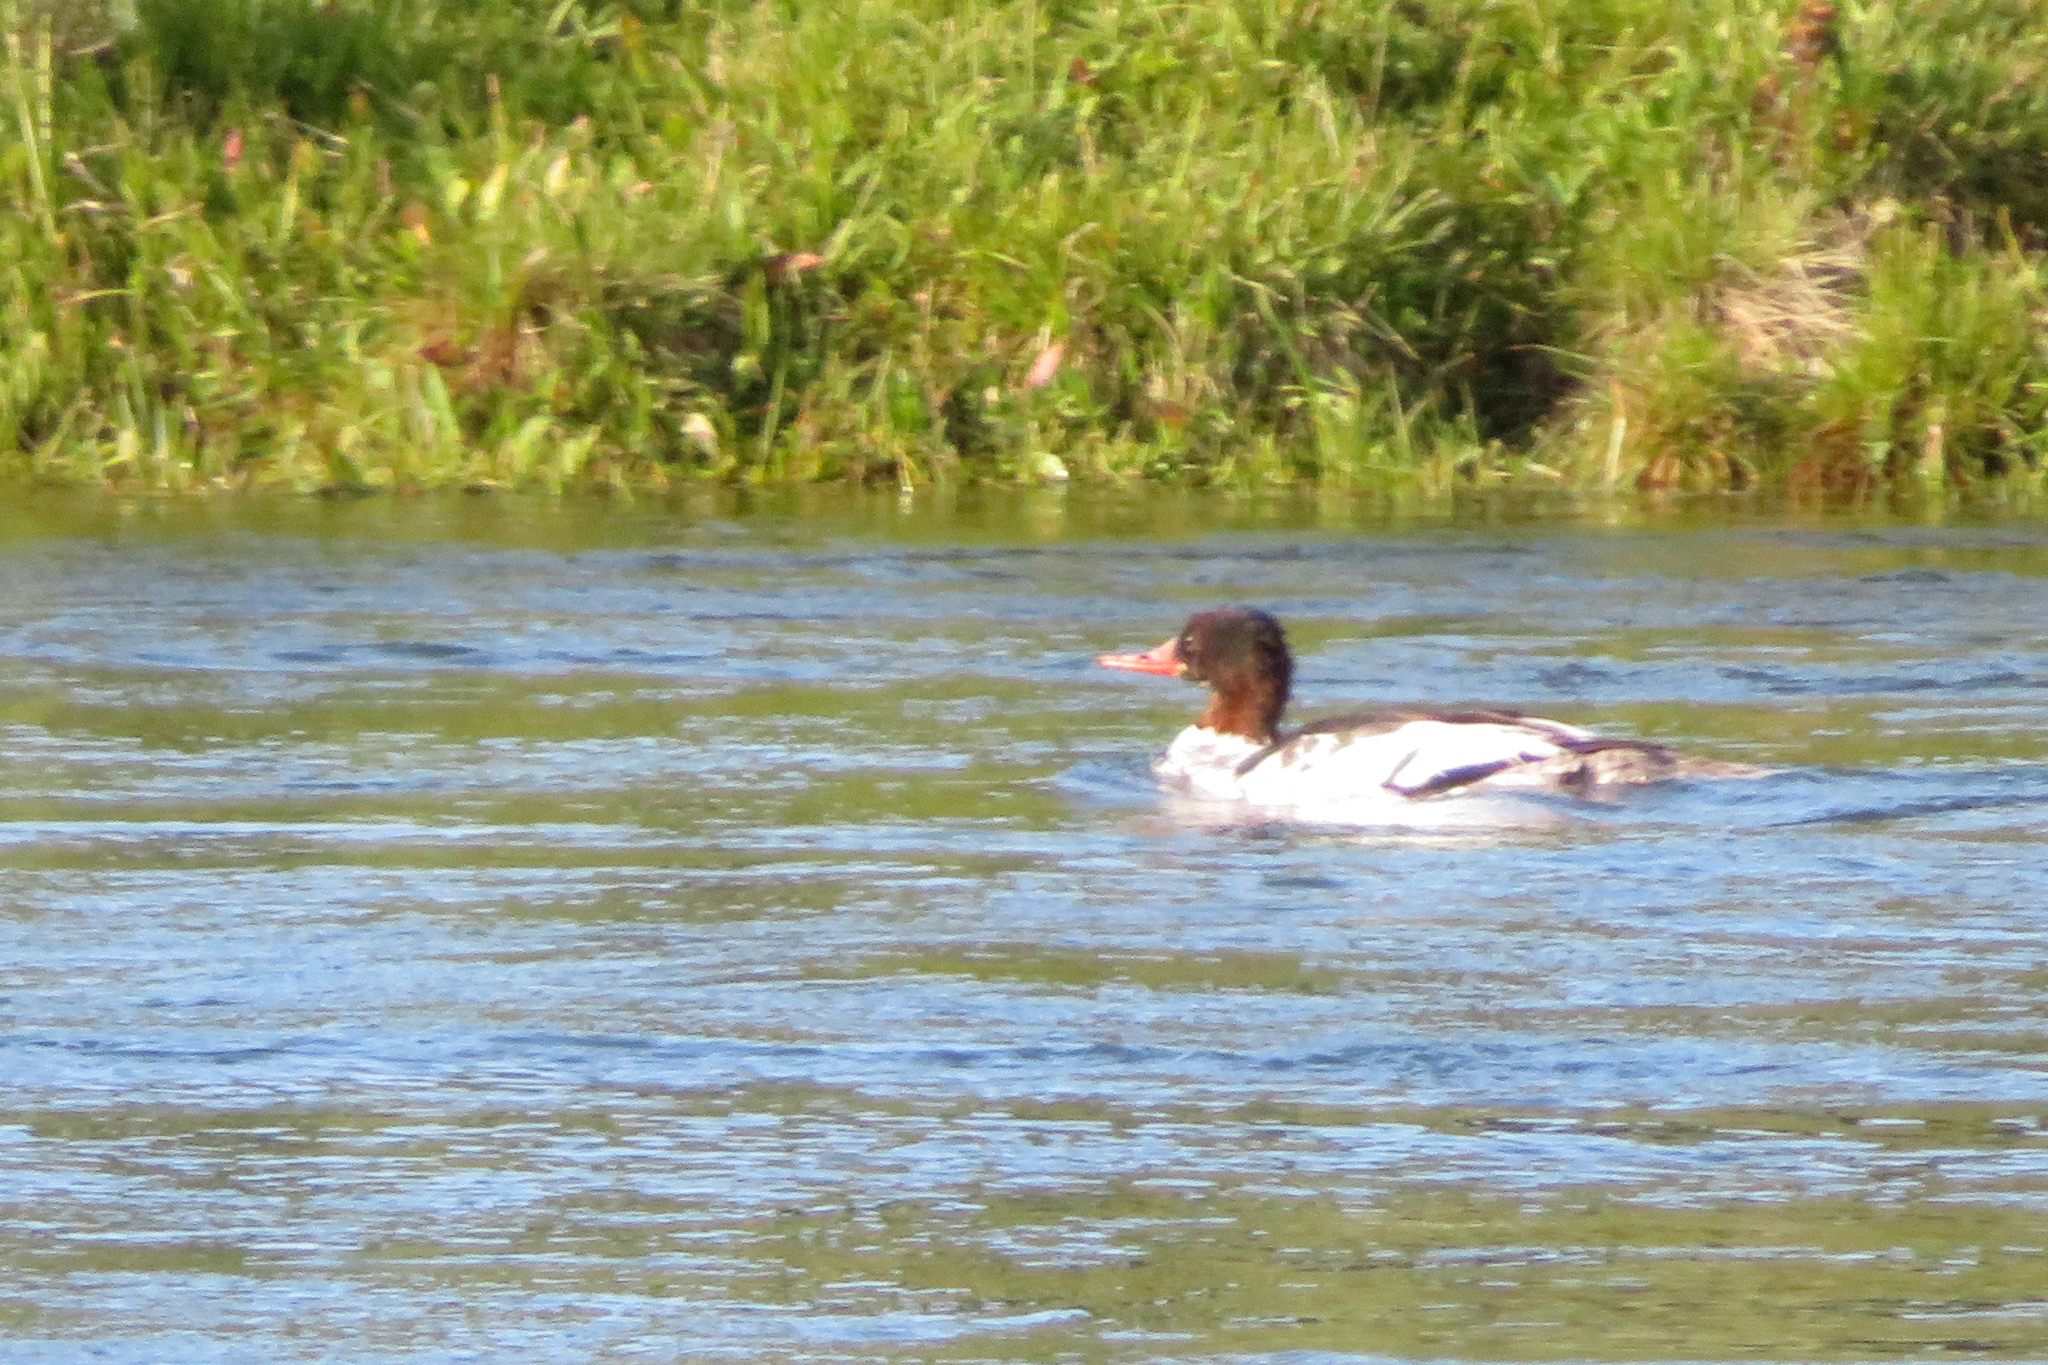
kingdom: Animalia
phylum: Chordata
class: Aves
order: Anseriformes
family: Anatidae
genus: Mergus
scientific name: Mergus merganser
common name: Common merganser
